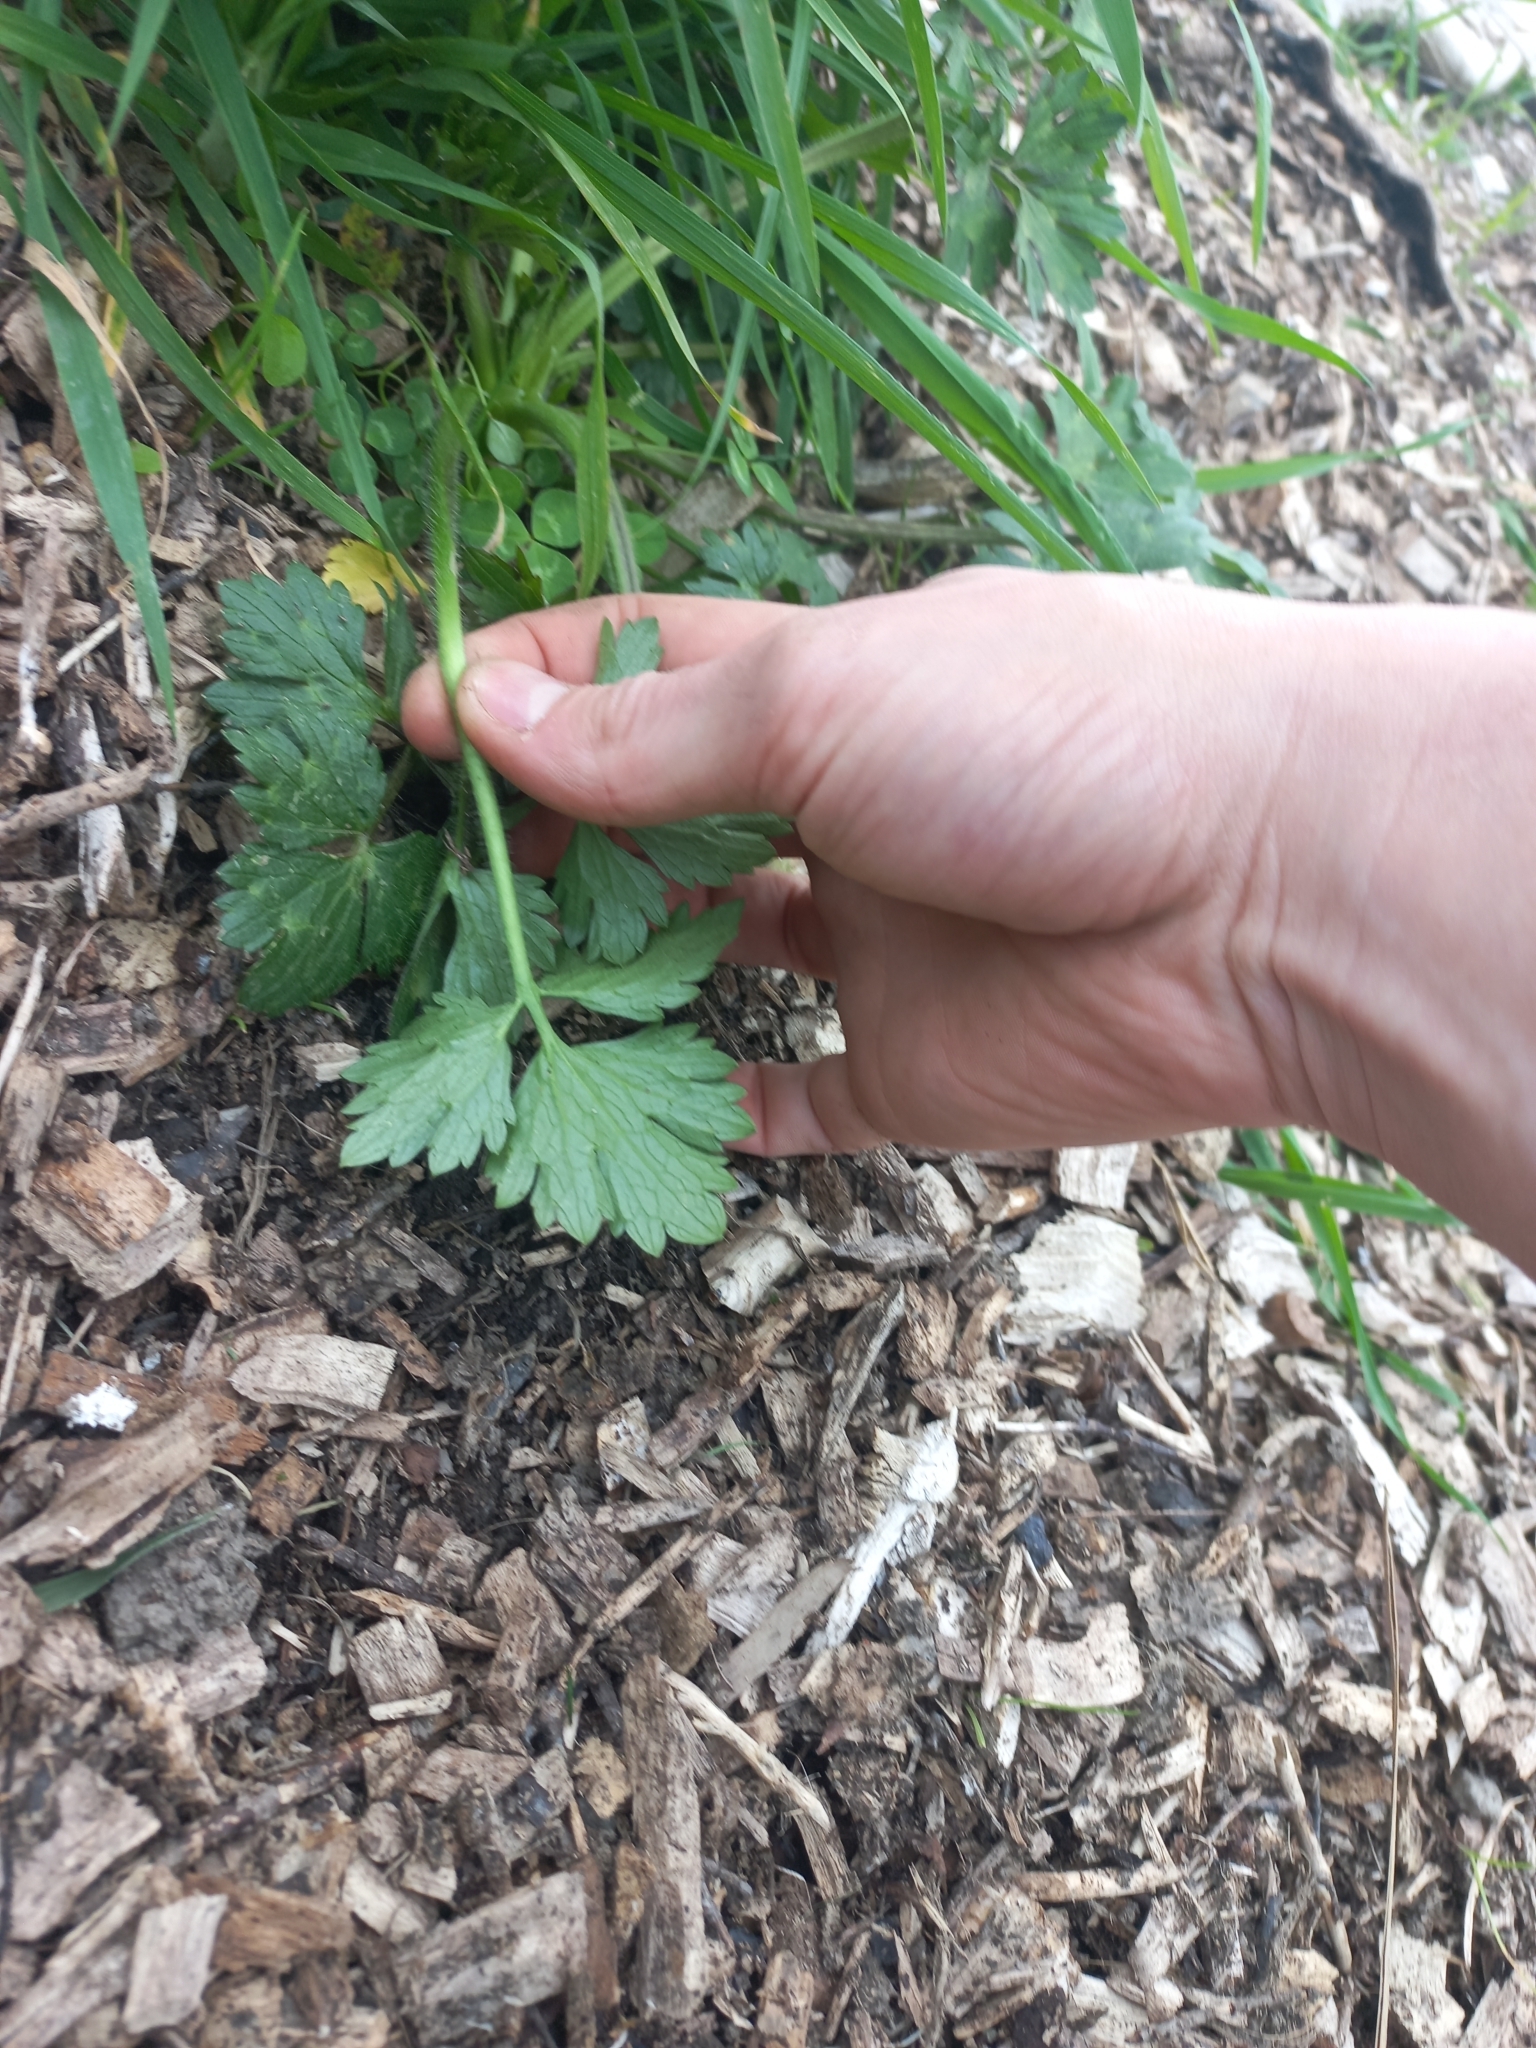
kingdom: Plantae
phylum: Tracheophyta
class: Magnoliopsida
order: Ranunculales
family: Ranunculaceae
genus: Ranunculus
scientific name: Ranunculus repens
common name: Creeping buttercup
